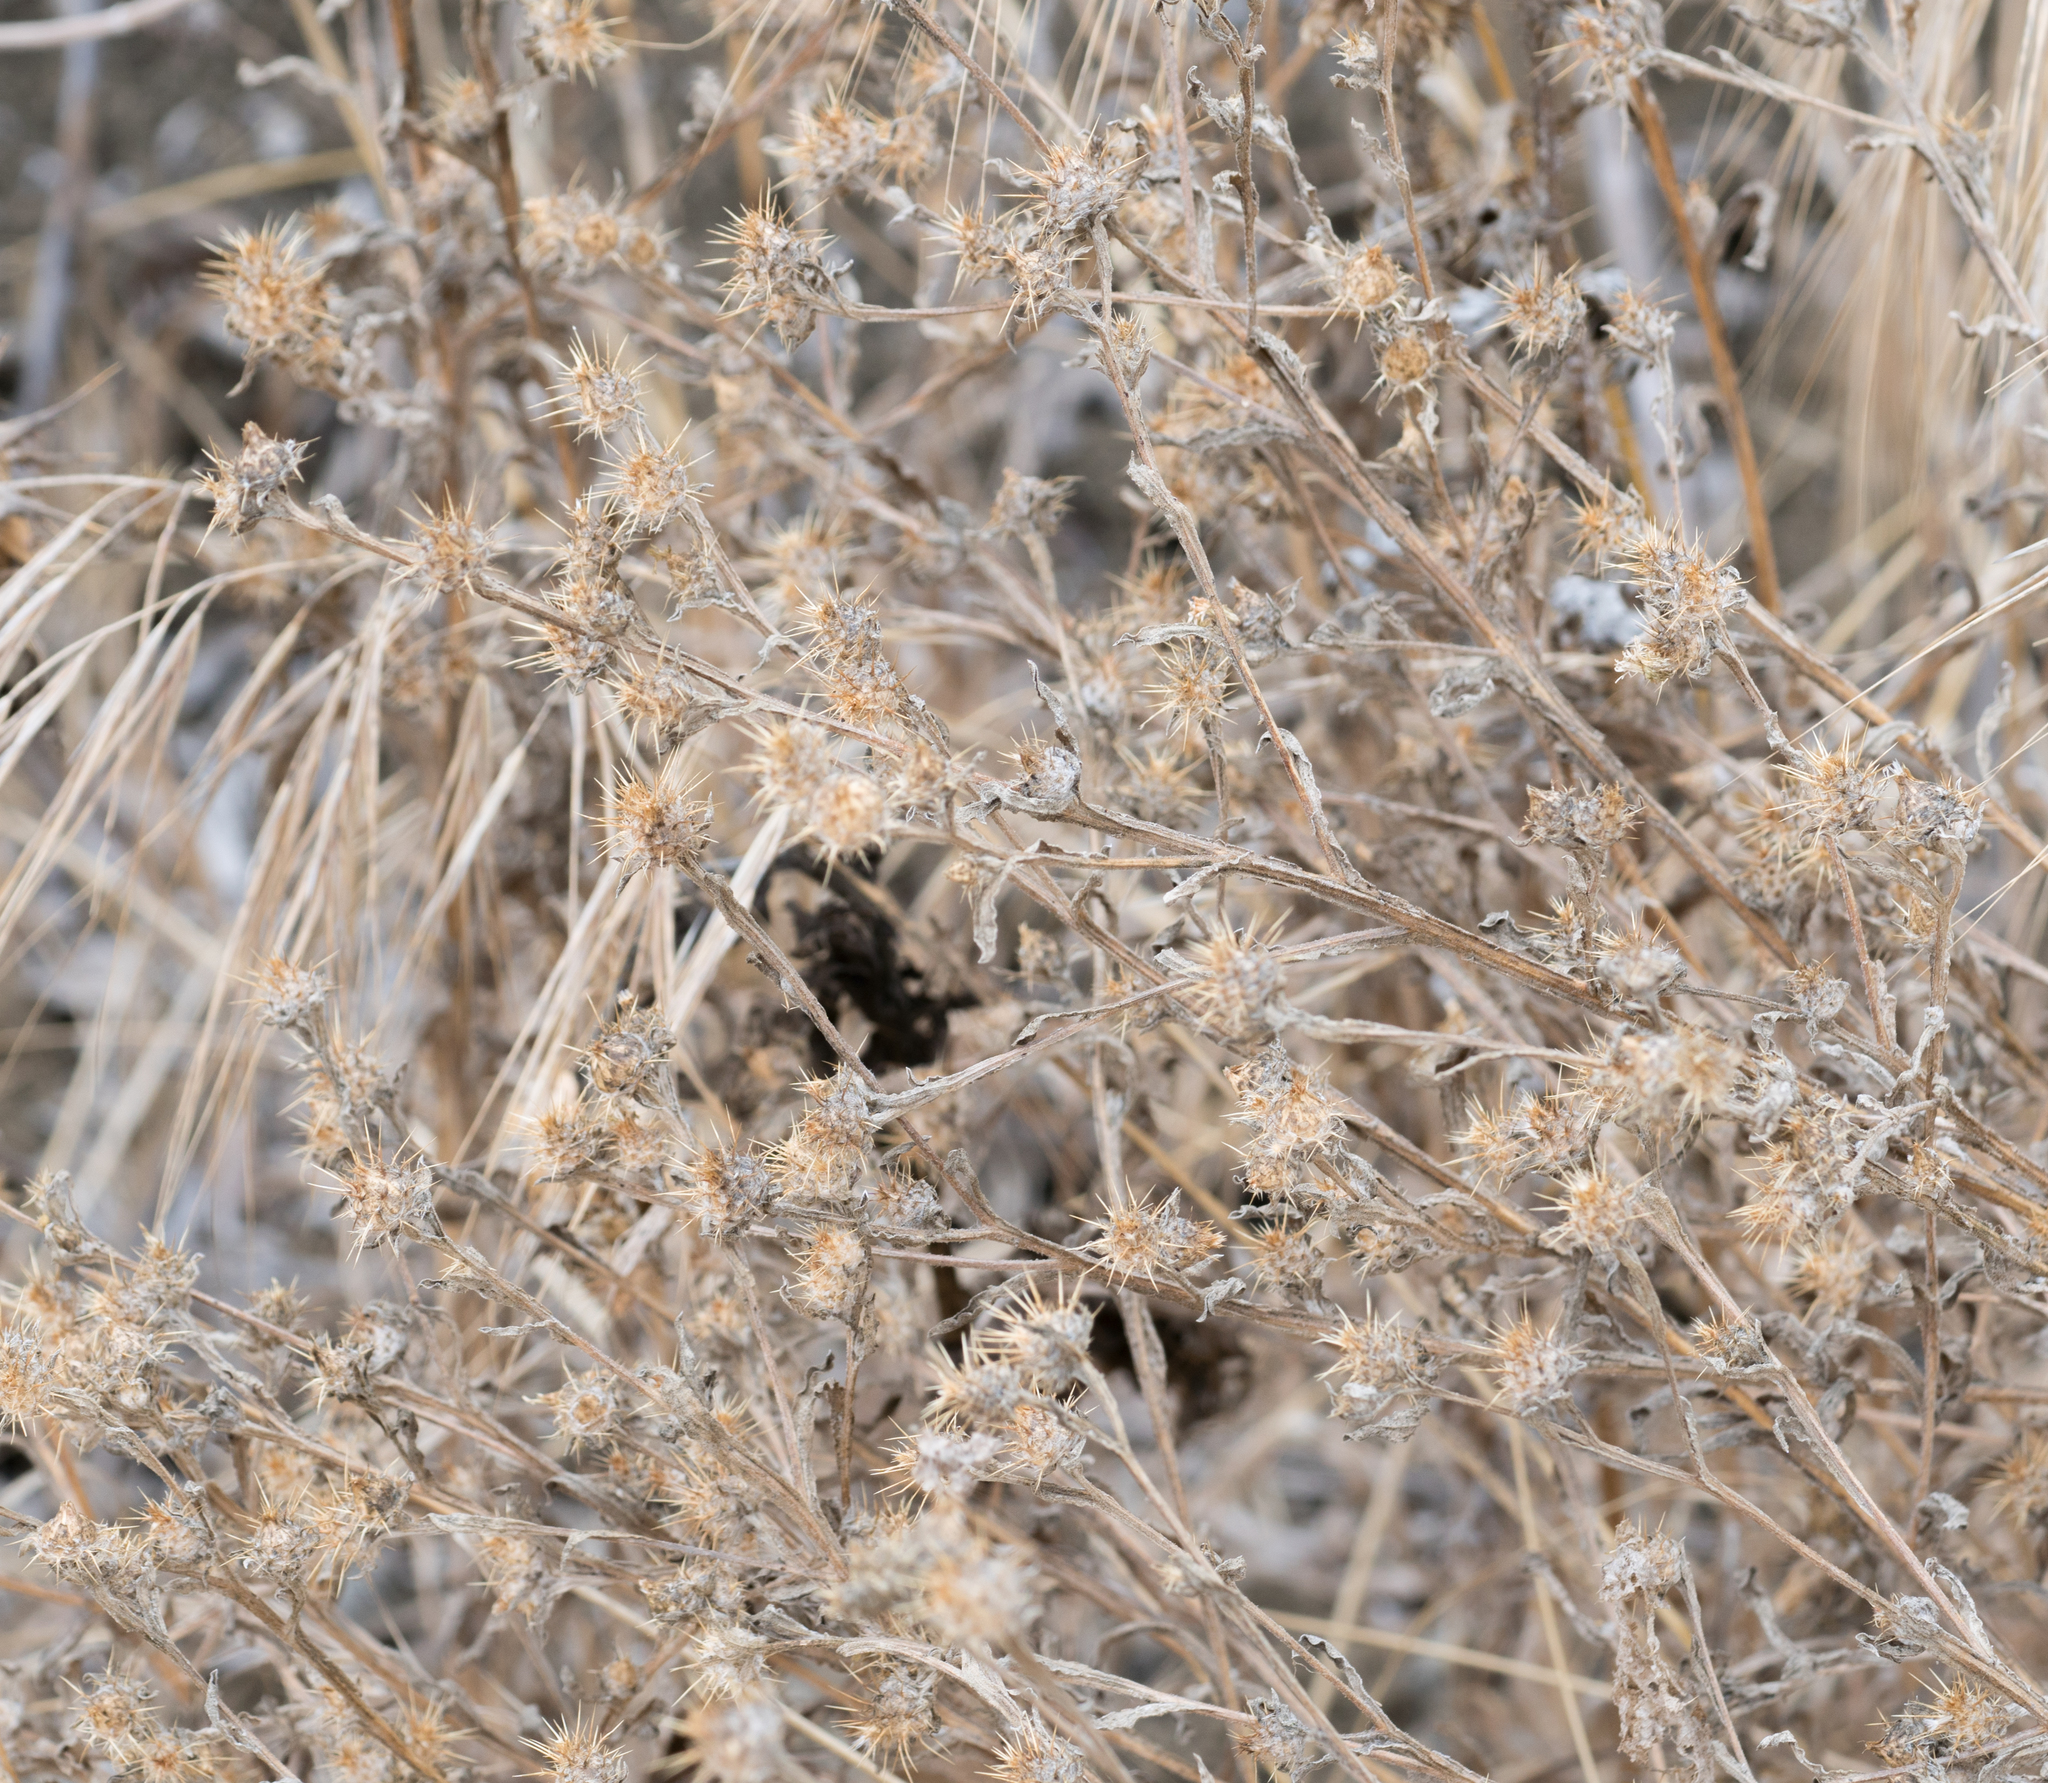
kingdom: Plantae
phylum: Tracheophyta
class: Magnoliopsida
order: Asterales
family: Asteraceae
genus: Centaurea
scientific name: Centaurea melitensis
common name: Maltese star-thistle
